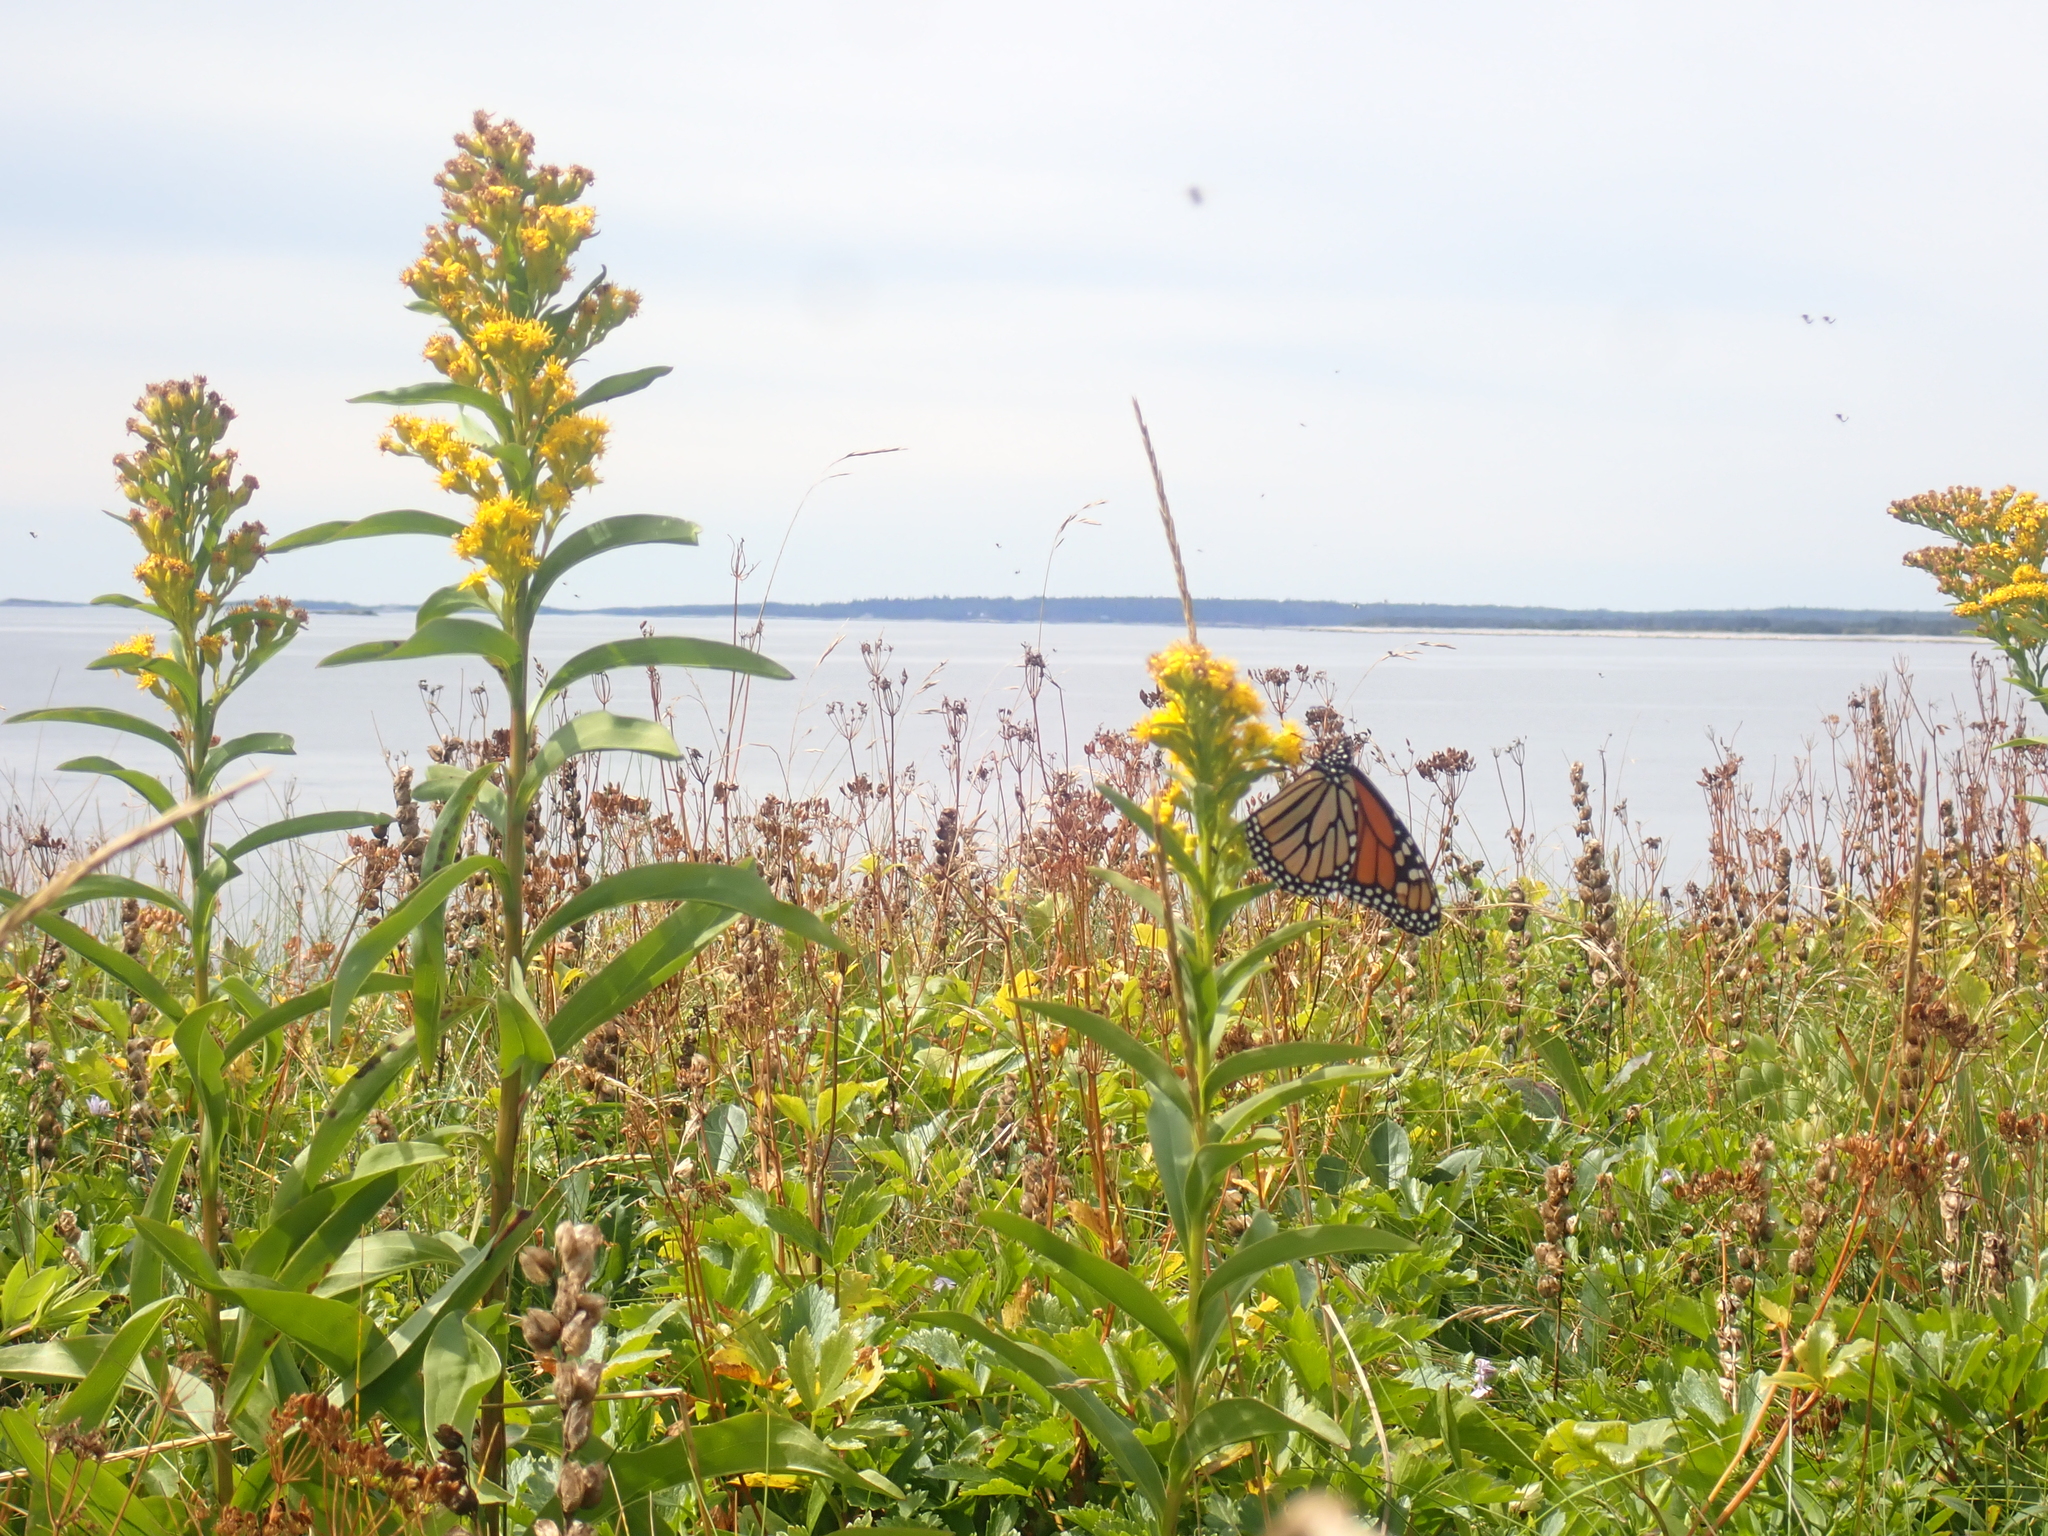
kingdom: Animalia
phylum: Arthropoda
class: Insecta
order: Lepidoptera
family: Nymphalidae
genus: Danaus
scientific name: Danaus plexippus
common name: Monarch
